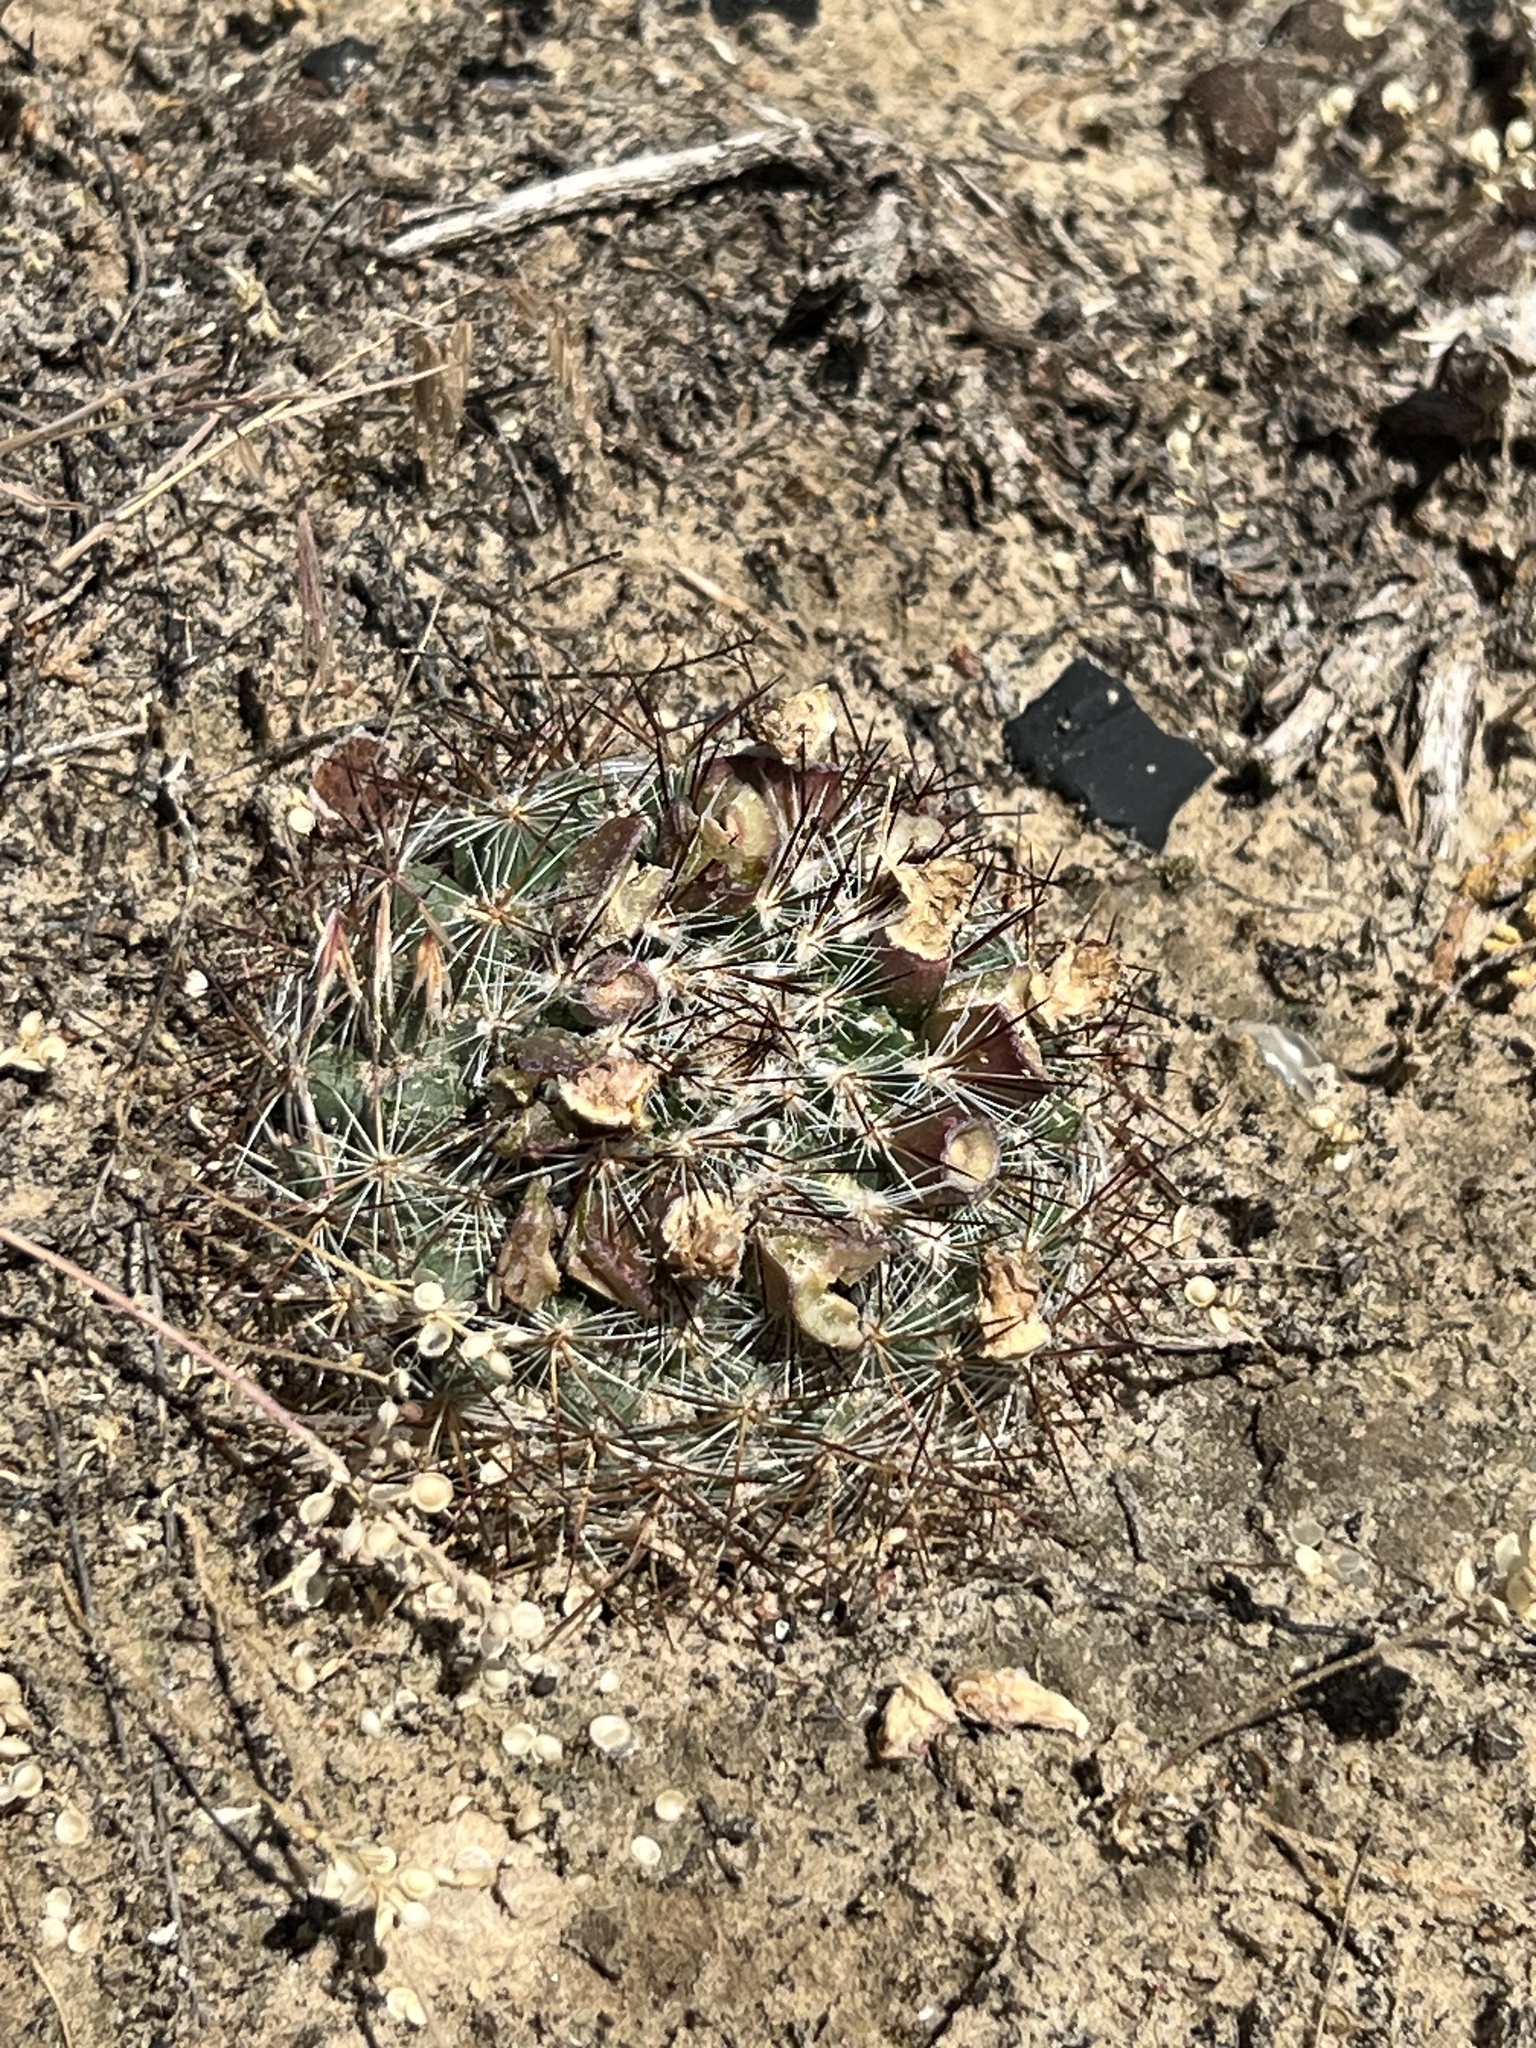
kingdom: Plantae
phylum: Tracheophyta
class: Magnoliopsida
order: Caryophyllales
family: Cactaceae
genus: Pediocactus
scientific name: Pediocactus simpsonii
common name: Simpson's hedgehog cactus
